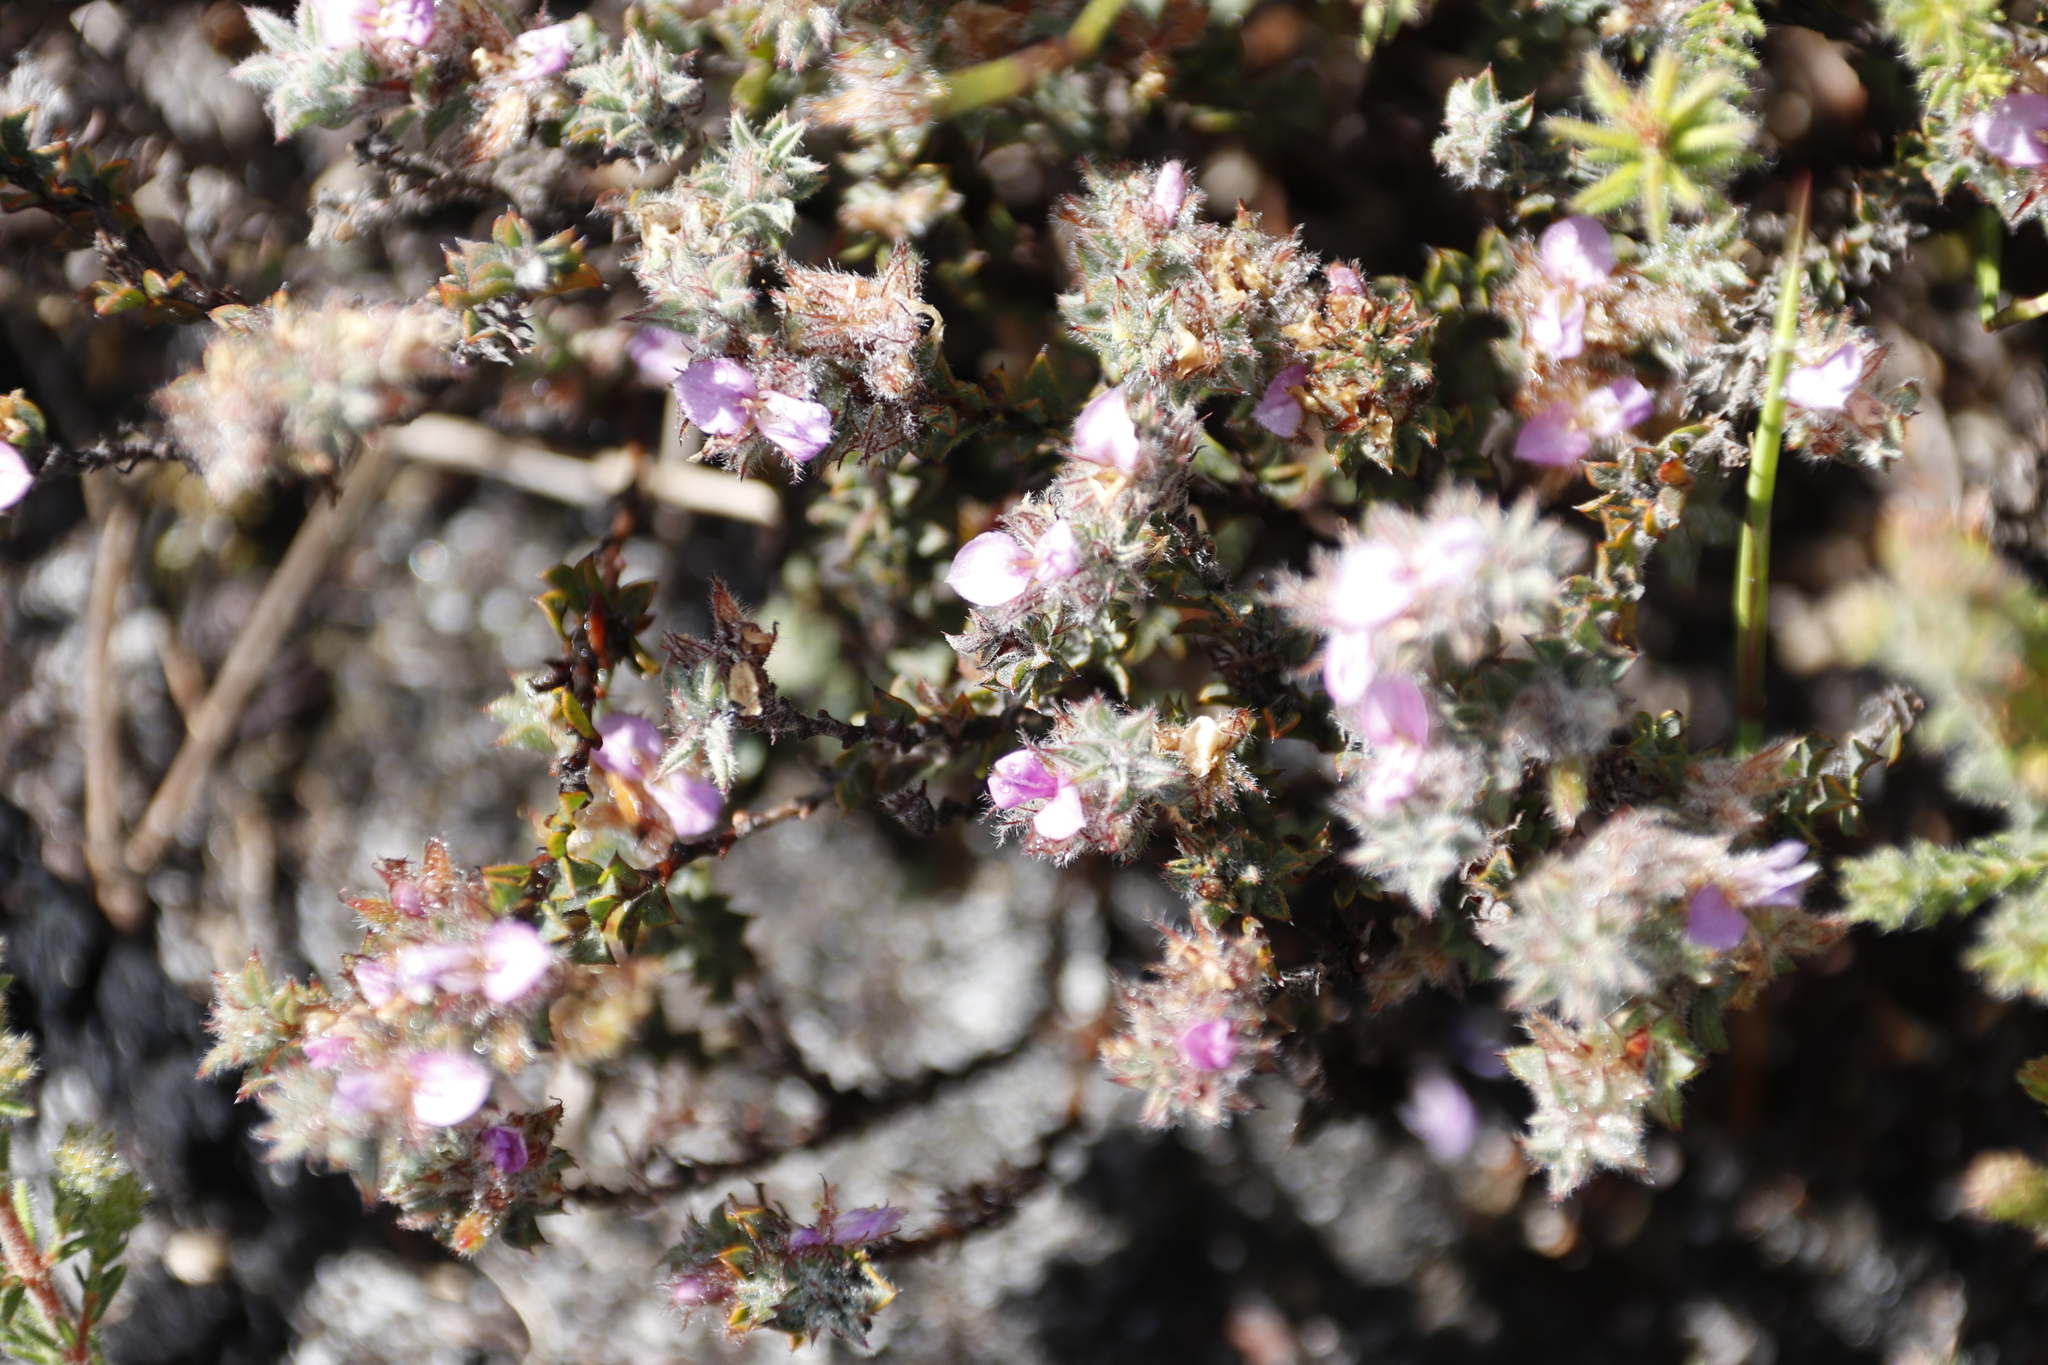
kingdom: Plantae
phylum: Tracheophyta
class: Magnoliopsida
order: Fabales
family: Fabaceae
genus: Indigofera
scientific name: Indigofera glomerata
